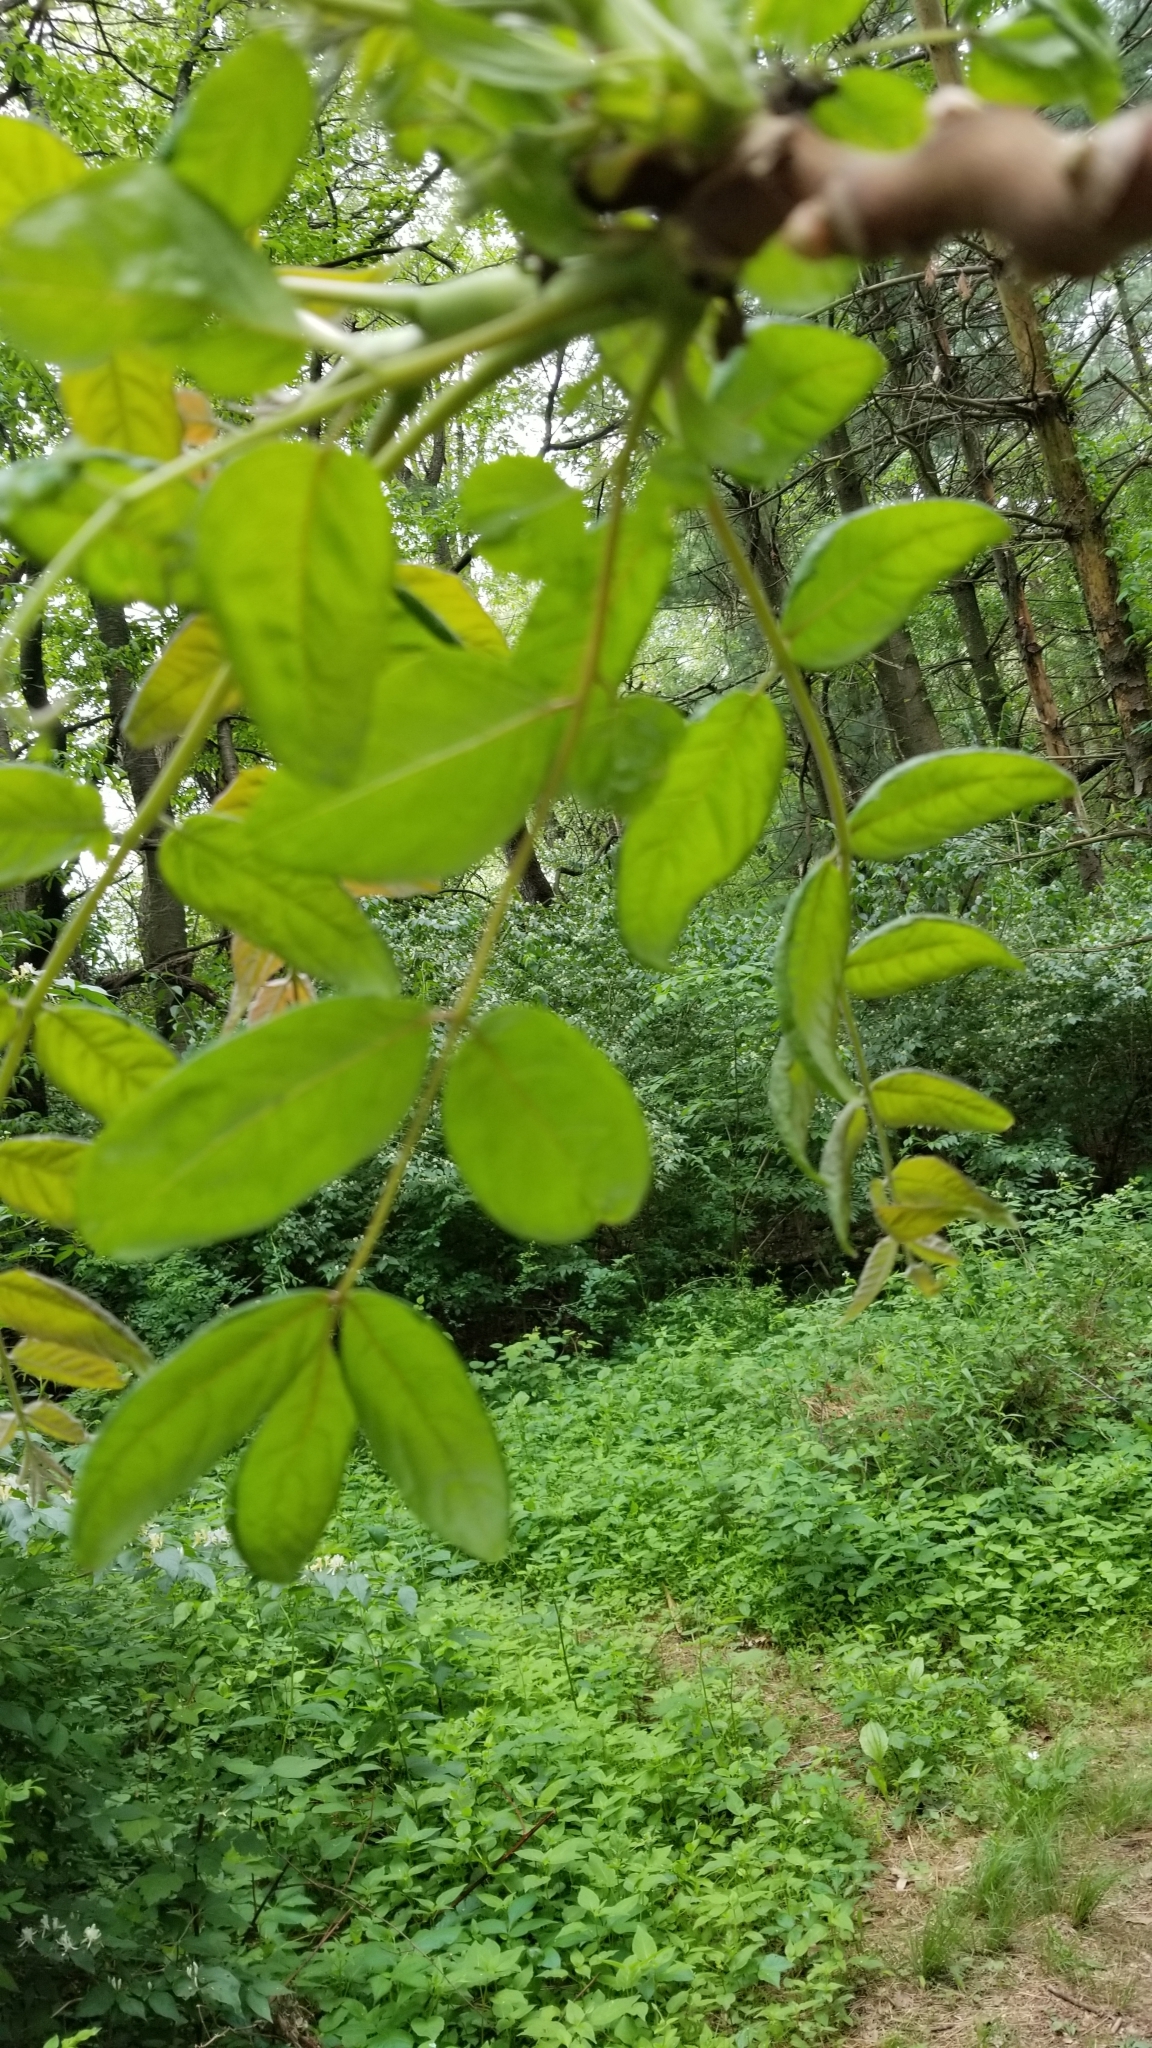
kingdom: Plantae
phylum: Tracheophyta
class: Magnoliopsida
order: Sapindales
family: Simaroubaceae
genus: Ailanthus
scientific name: Ailanthus altissima
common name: Tree-of-heaven
